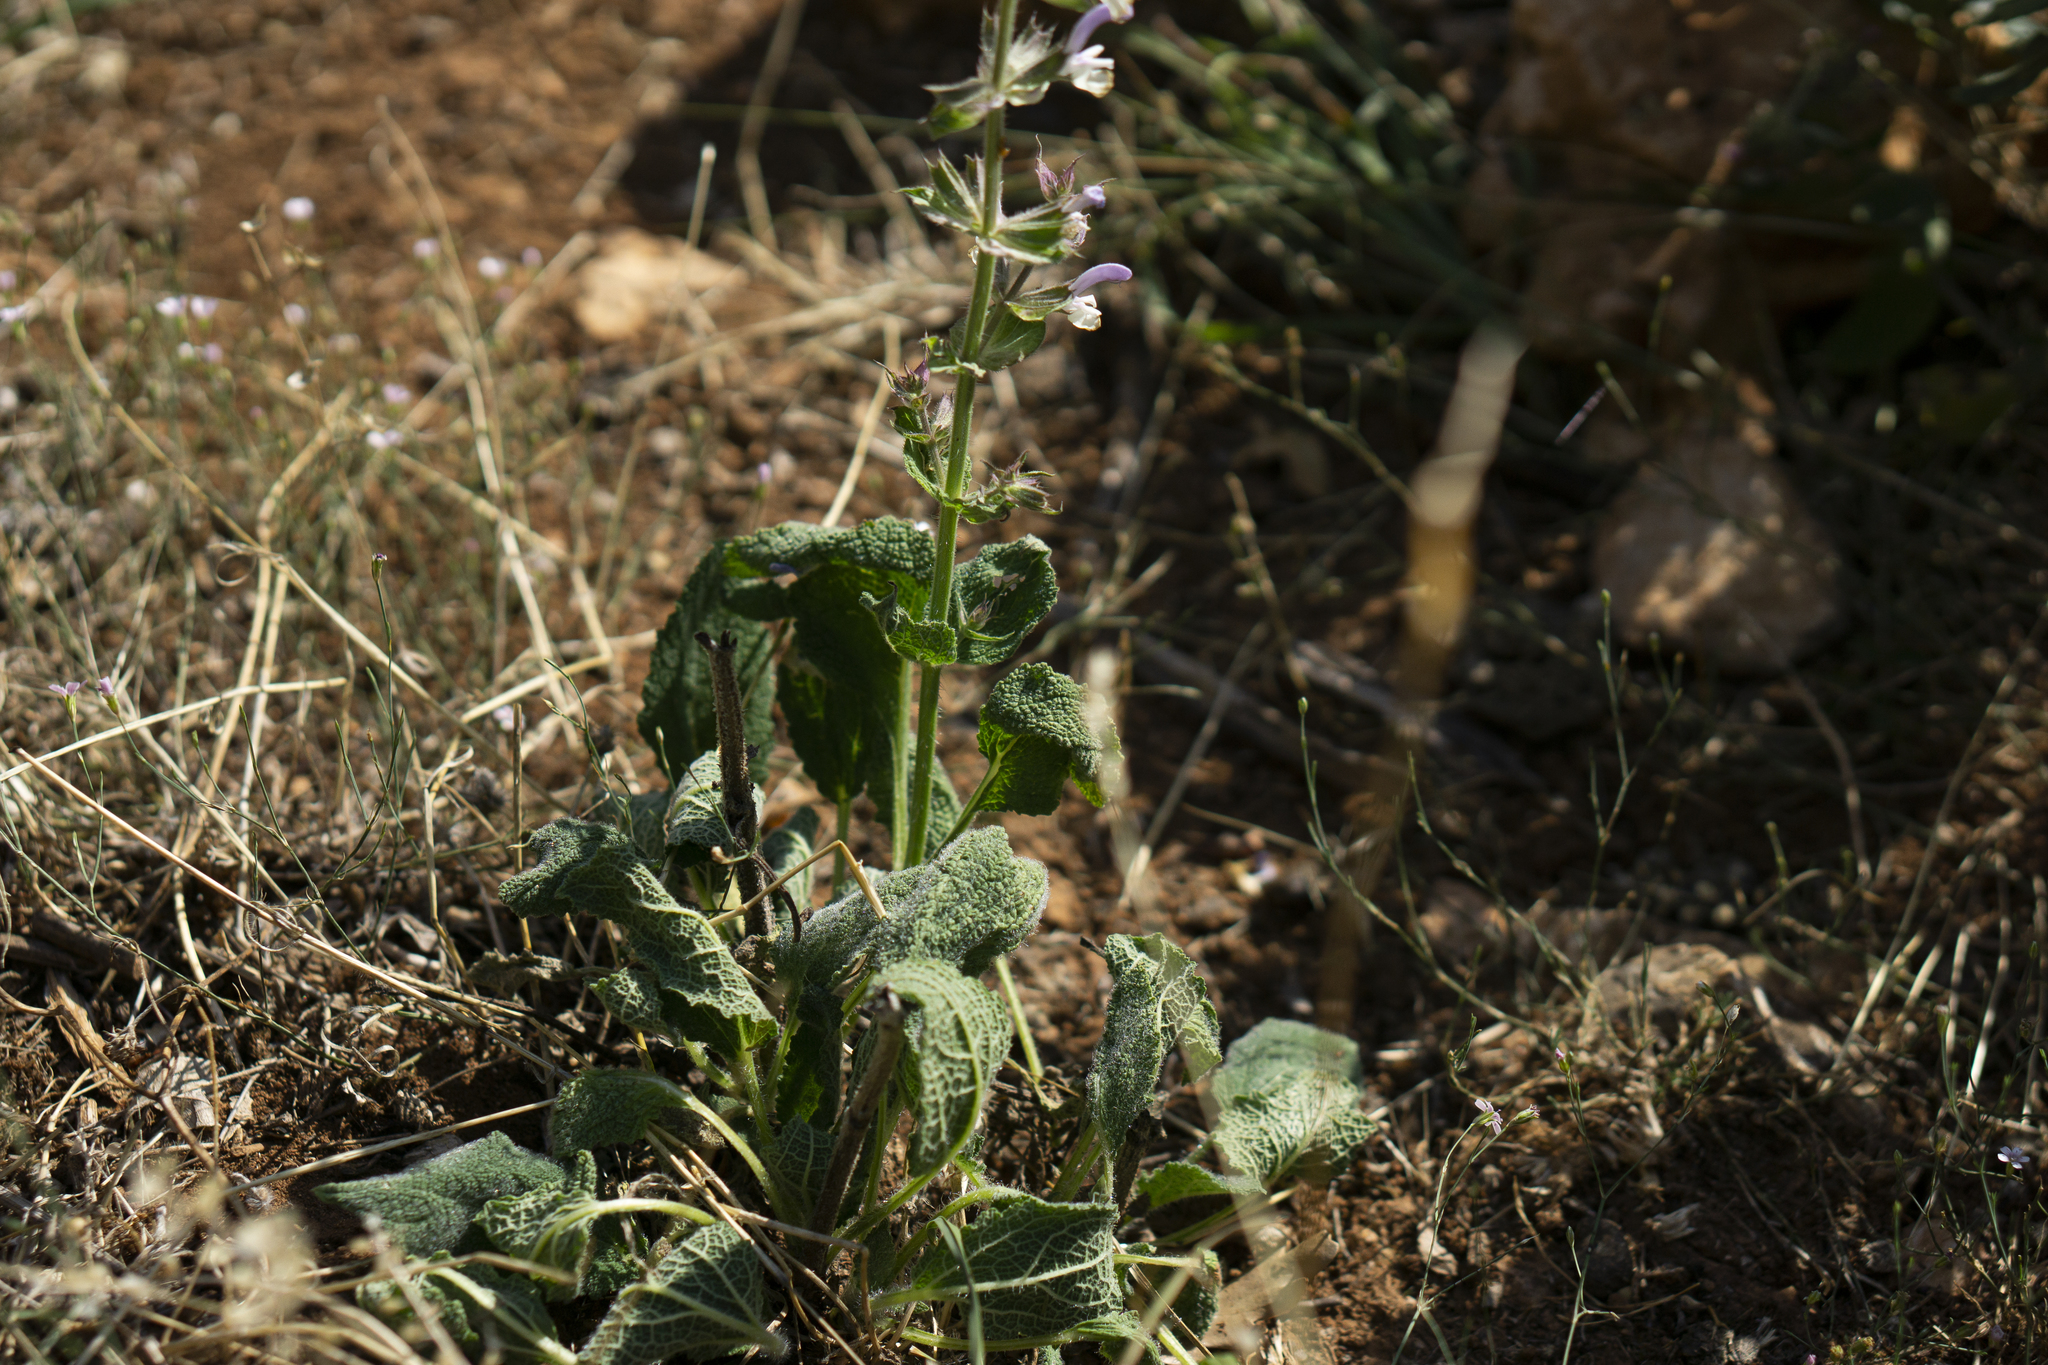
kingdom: Plantae
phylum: Tracheophyta
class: Magnoliopsida
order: Lamiales
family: Lamiaceae
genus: Salvia
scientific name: Salvia sclarea
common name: Clary
